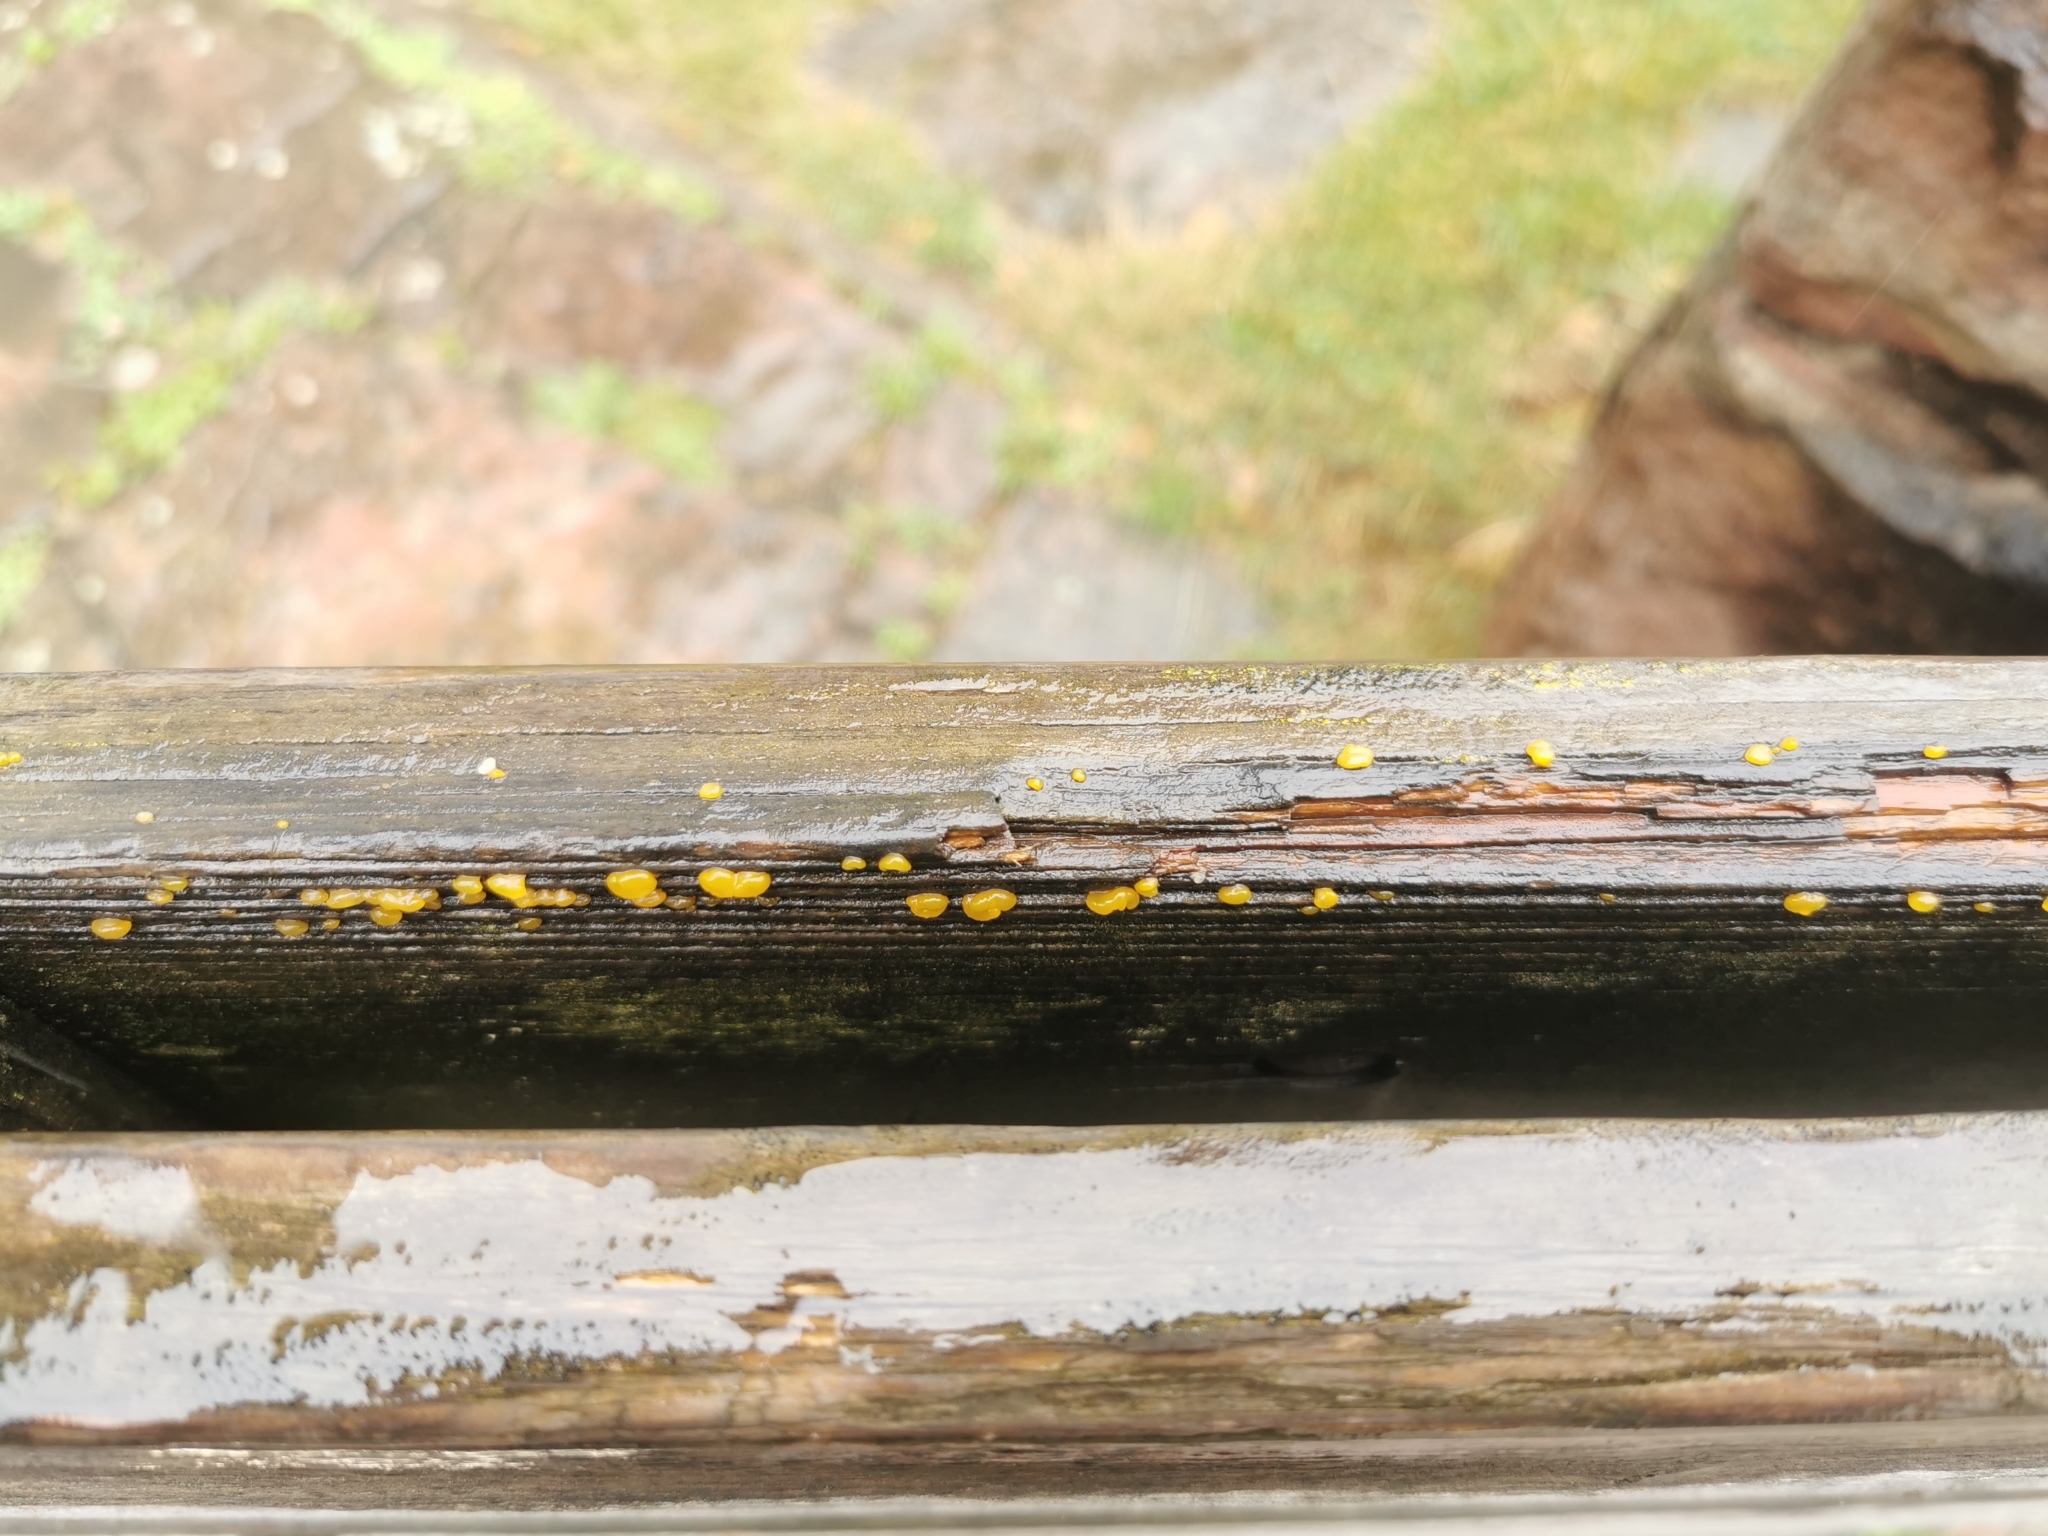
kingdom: Fungi
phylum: Basidiomycota
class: Dacrymycetes
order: Dacrymycetales
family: Dacrymycetaceae
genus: Dacrymyces
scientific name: Dacrymyces stillatus
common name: Common jelly spot
